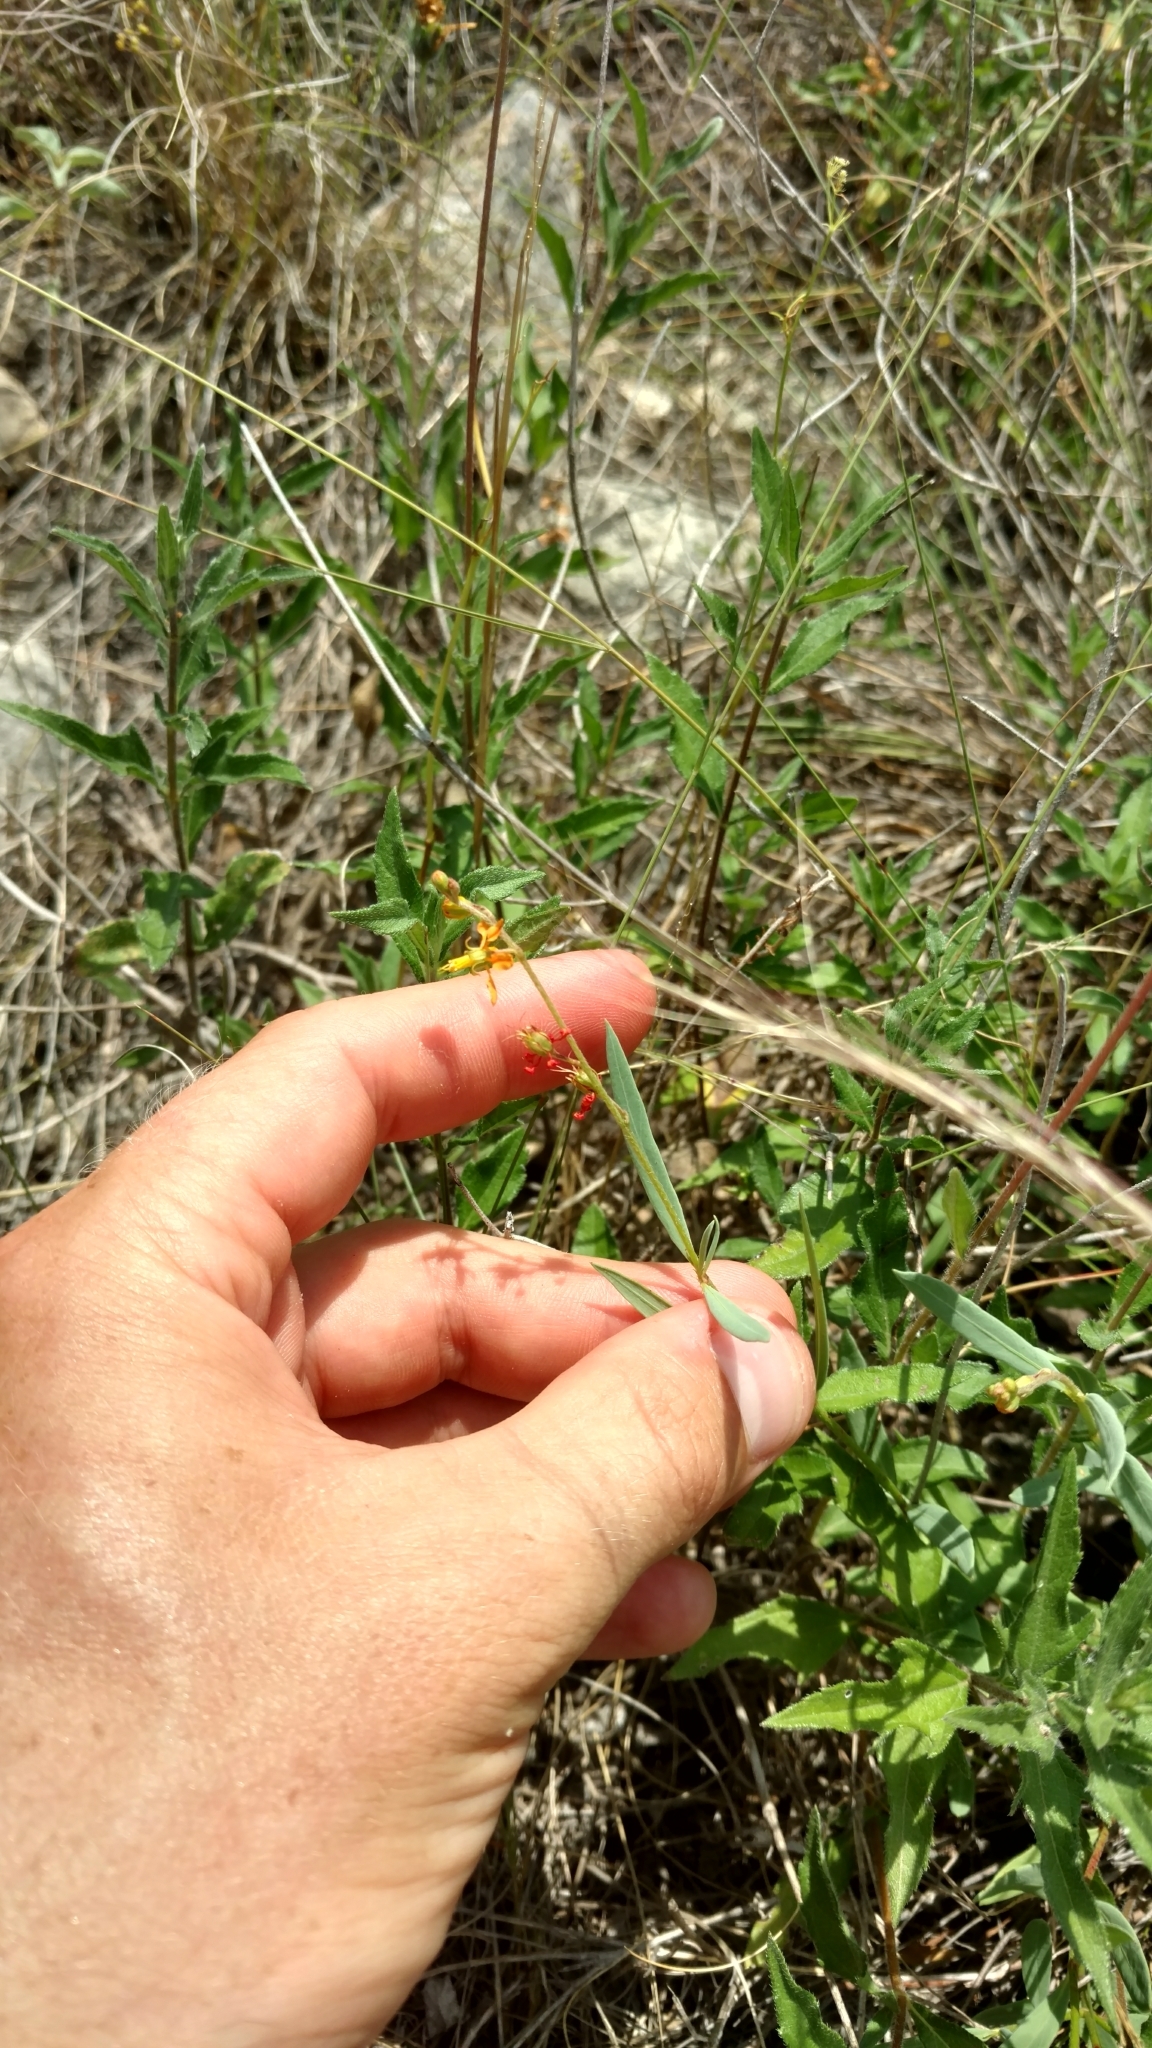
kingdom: Plantae
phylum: Tracheophyta
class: Magnoliopsida
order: Malpighiales
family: Malpighiaceae
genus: Galphimia
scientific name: Galphimia angustifolia
